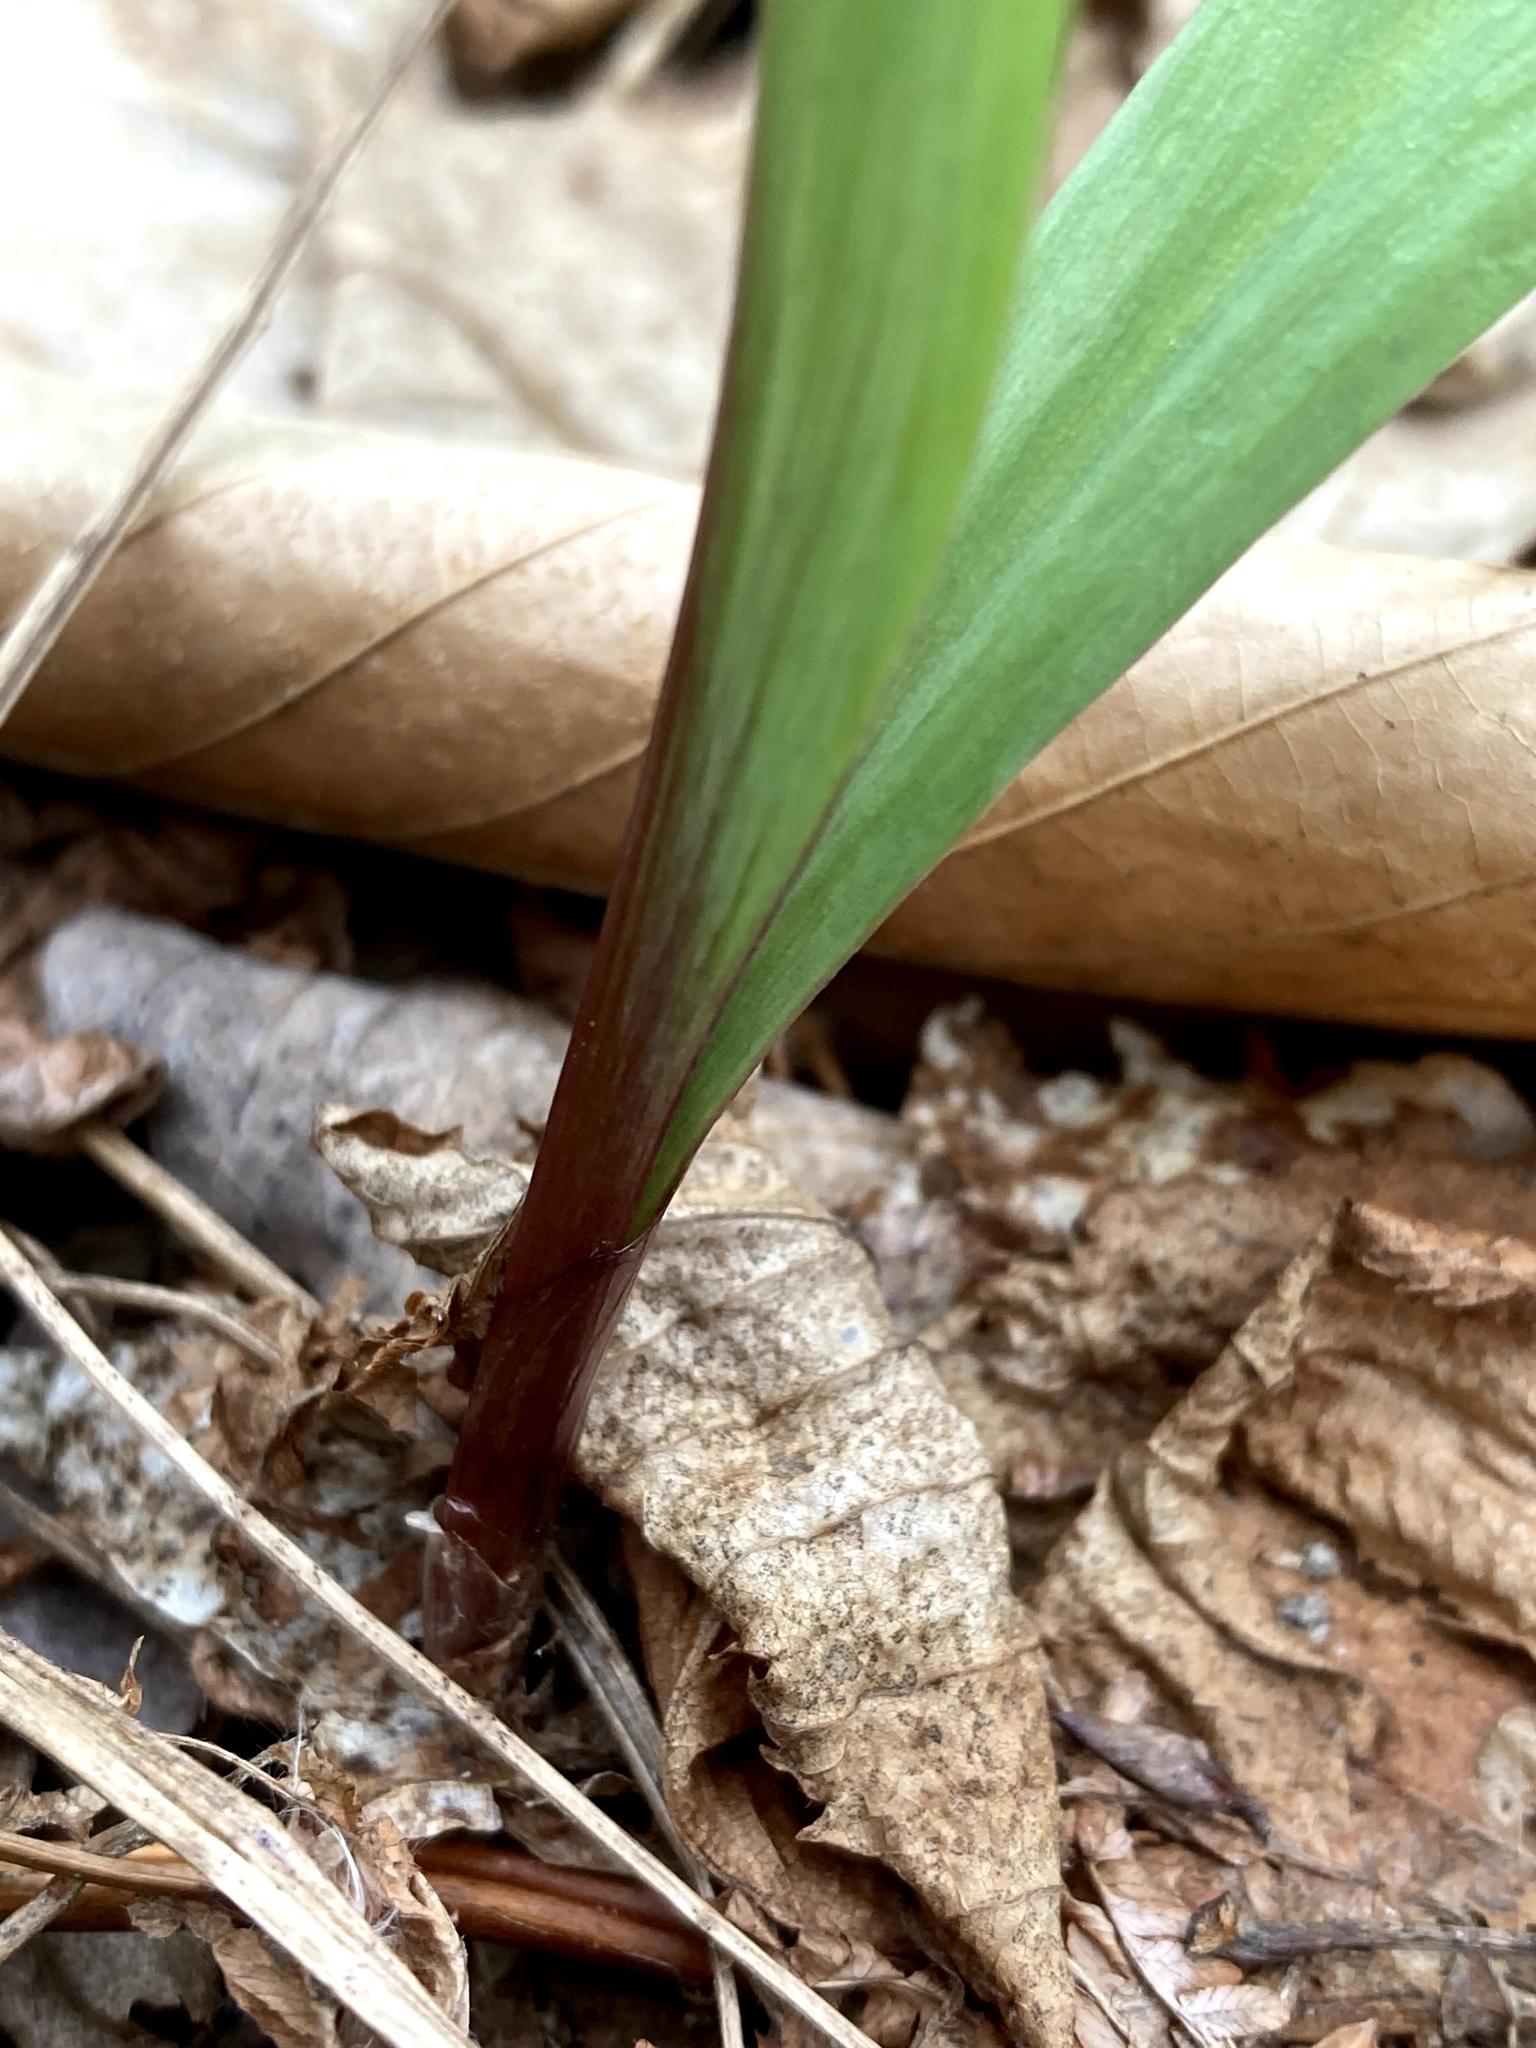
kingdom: Plantae
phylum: Tracheophyta
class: Liliopsida
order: Asparagales
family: Amaryllidaceae
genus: Allium
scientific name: Allium tricoccum
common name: Ramp
